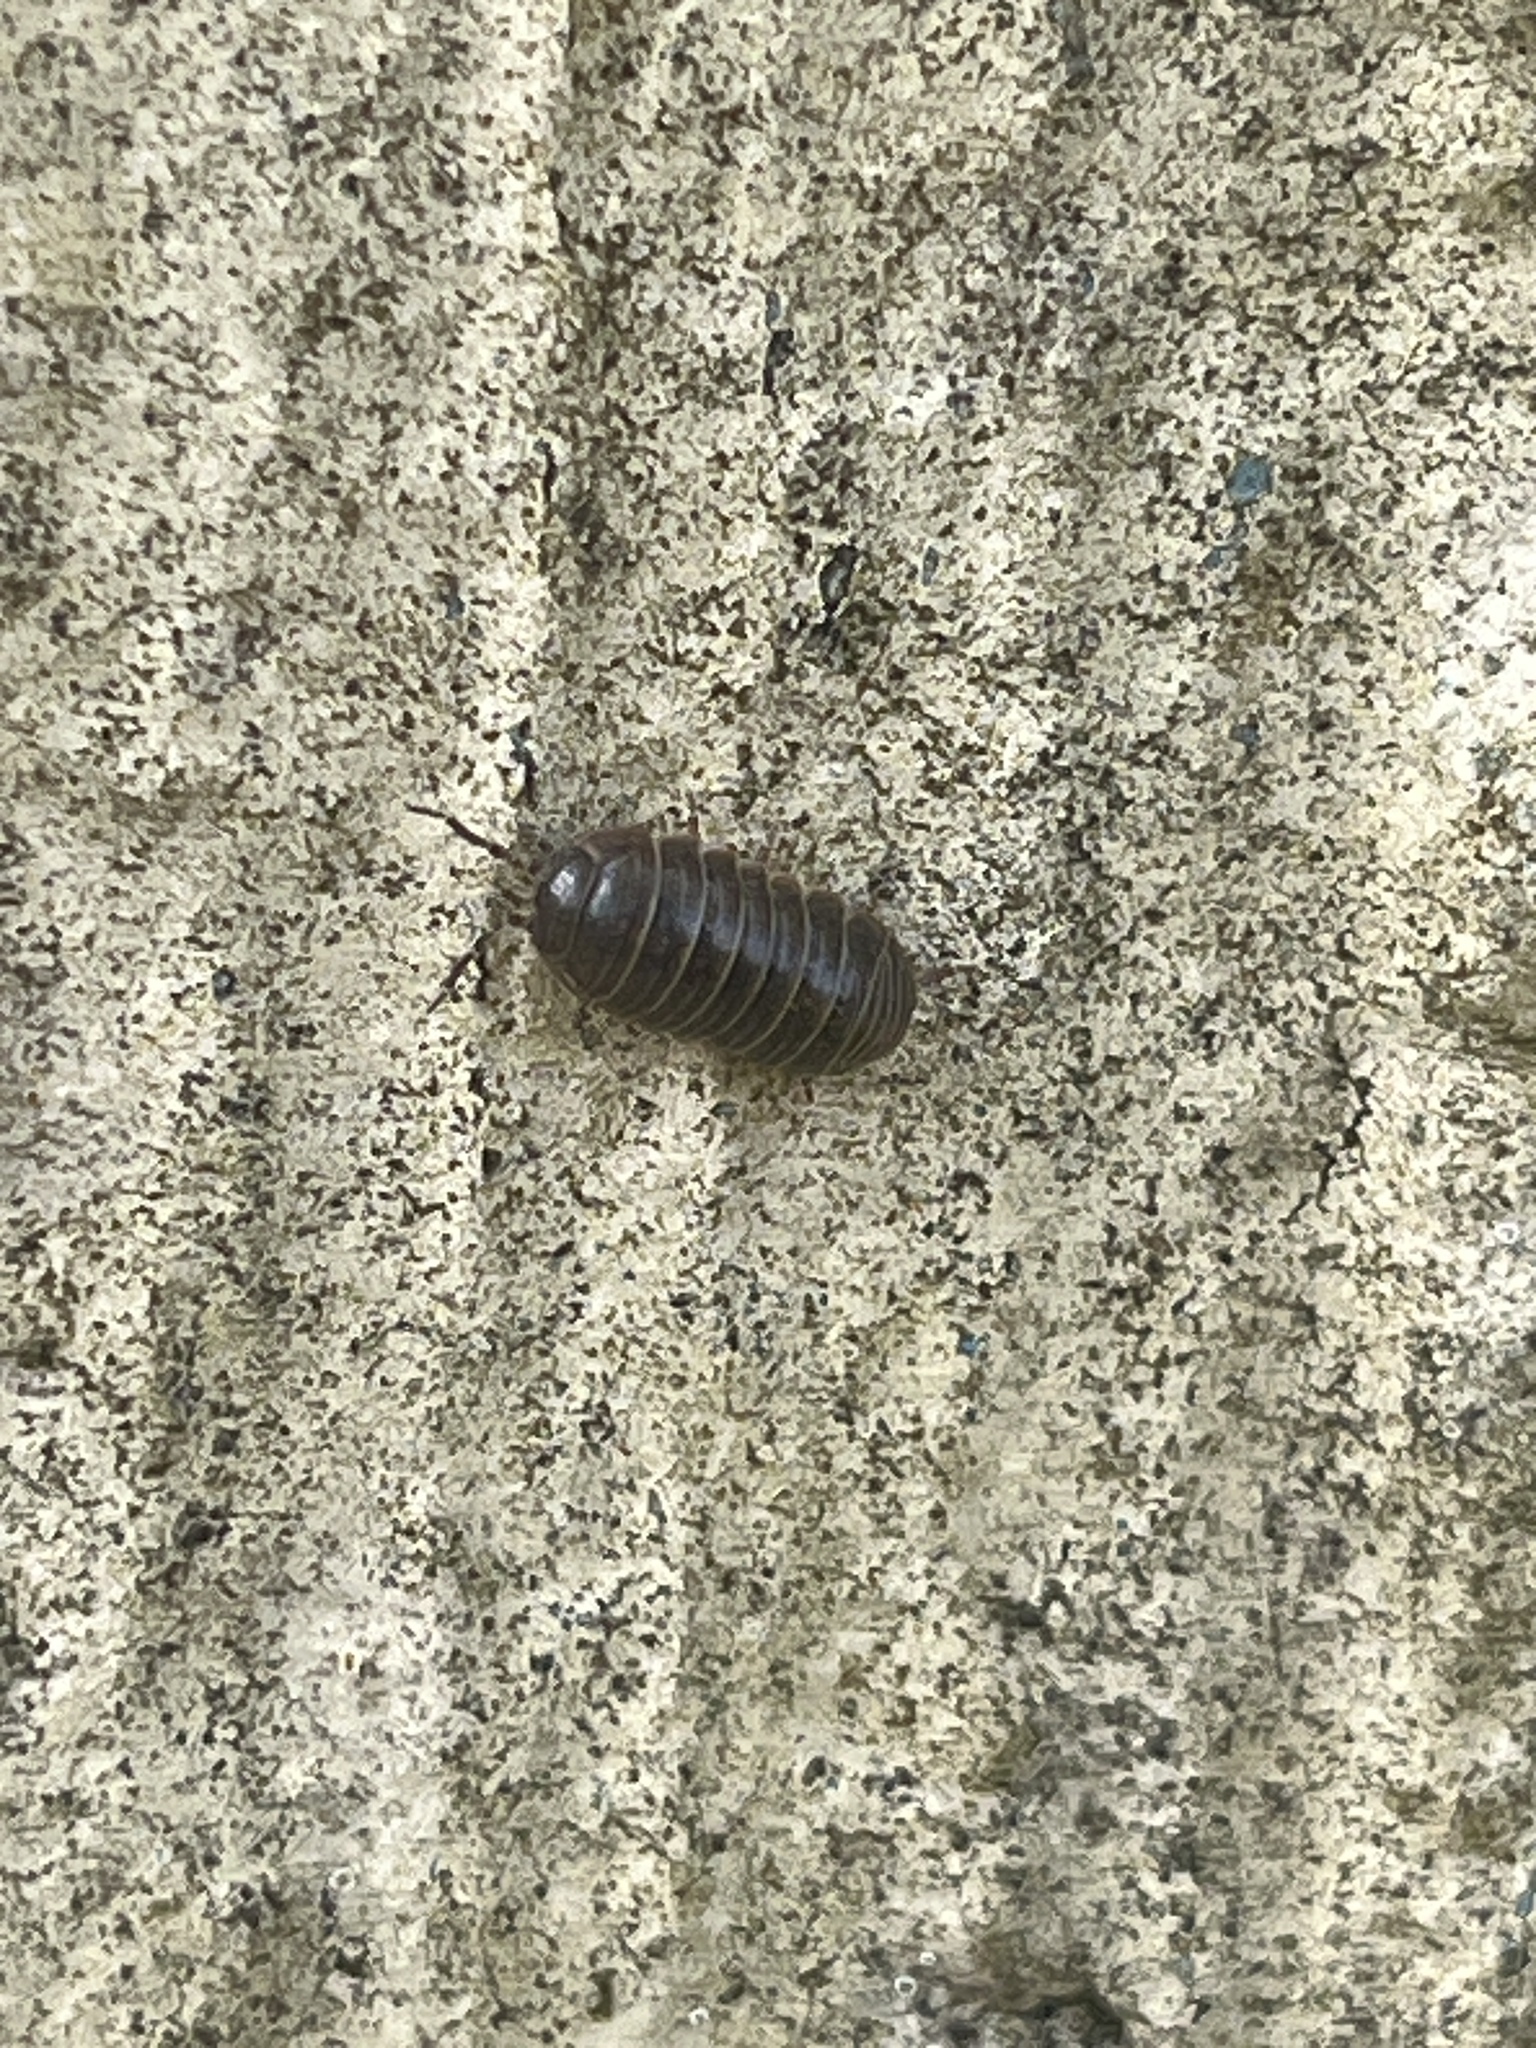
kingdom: Animalia
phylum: Arthropoda
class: Malacostraca
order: Isopoda
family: Armadillidiidae
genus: Armadillidium
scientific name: Armadillidium vulgare
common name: Common pill woodlouse
